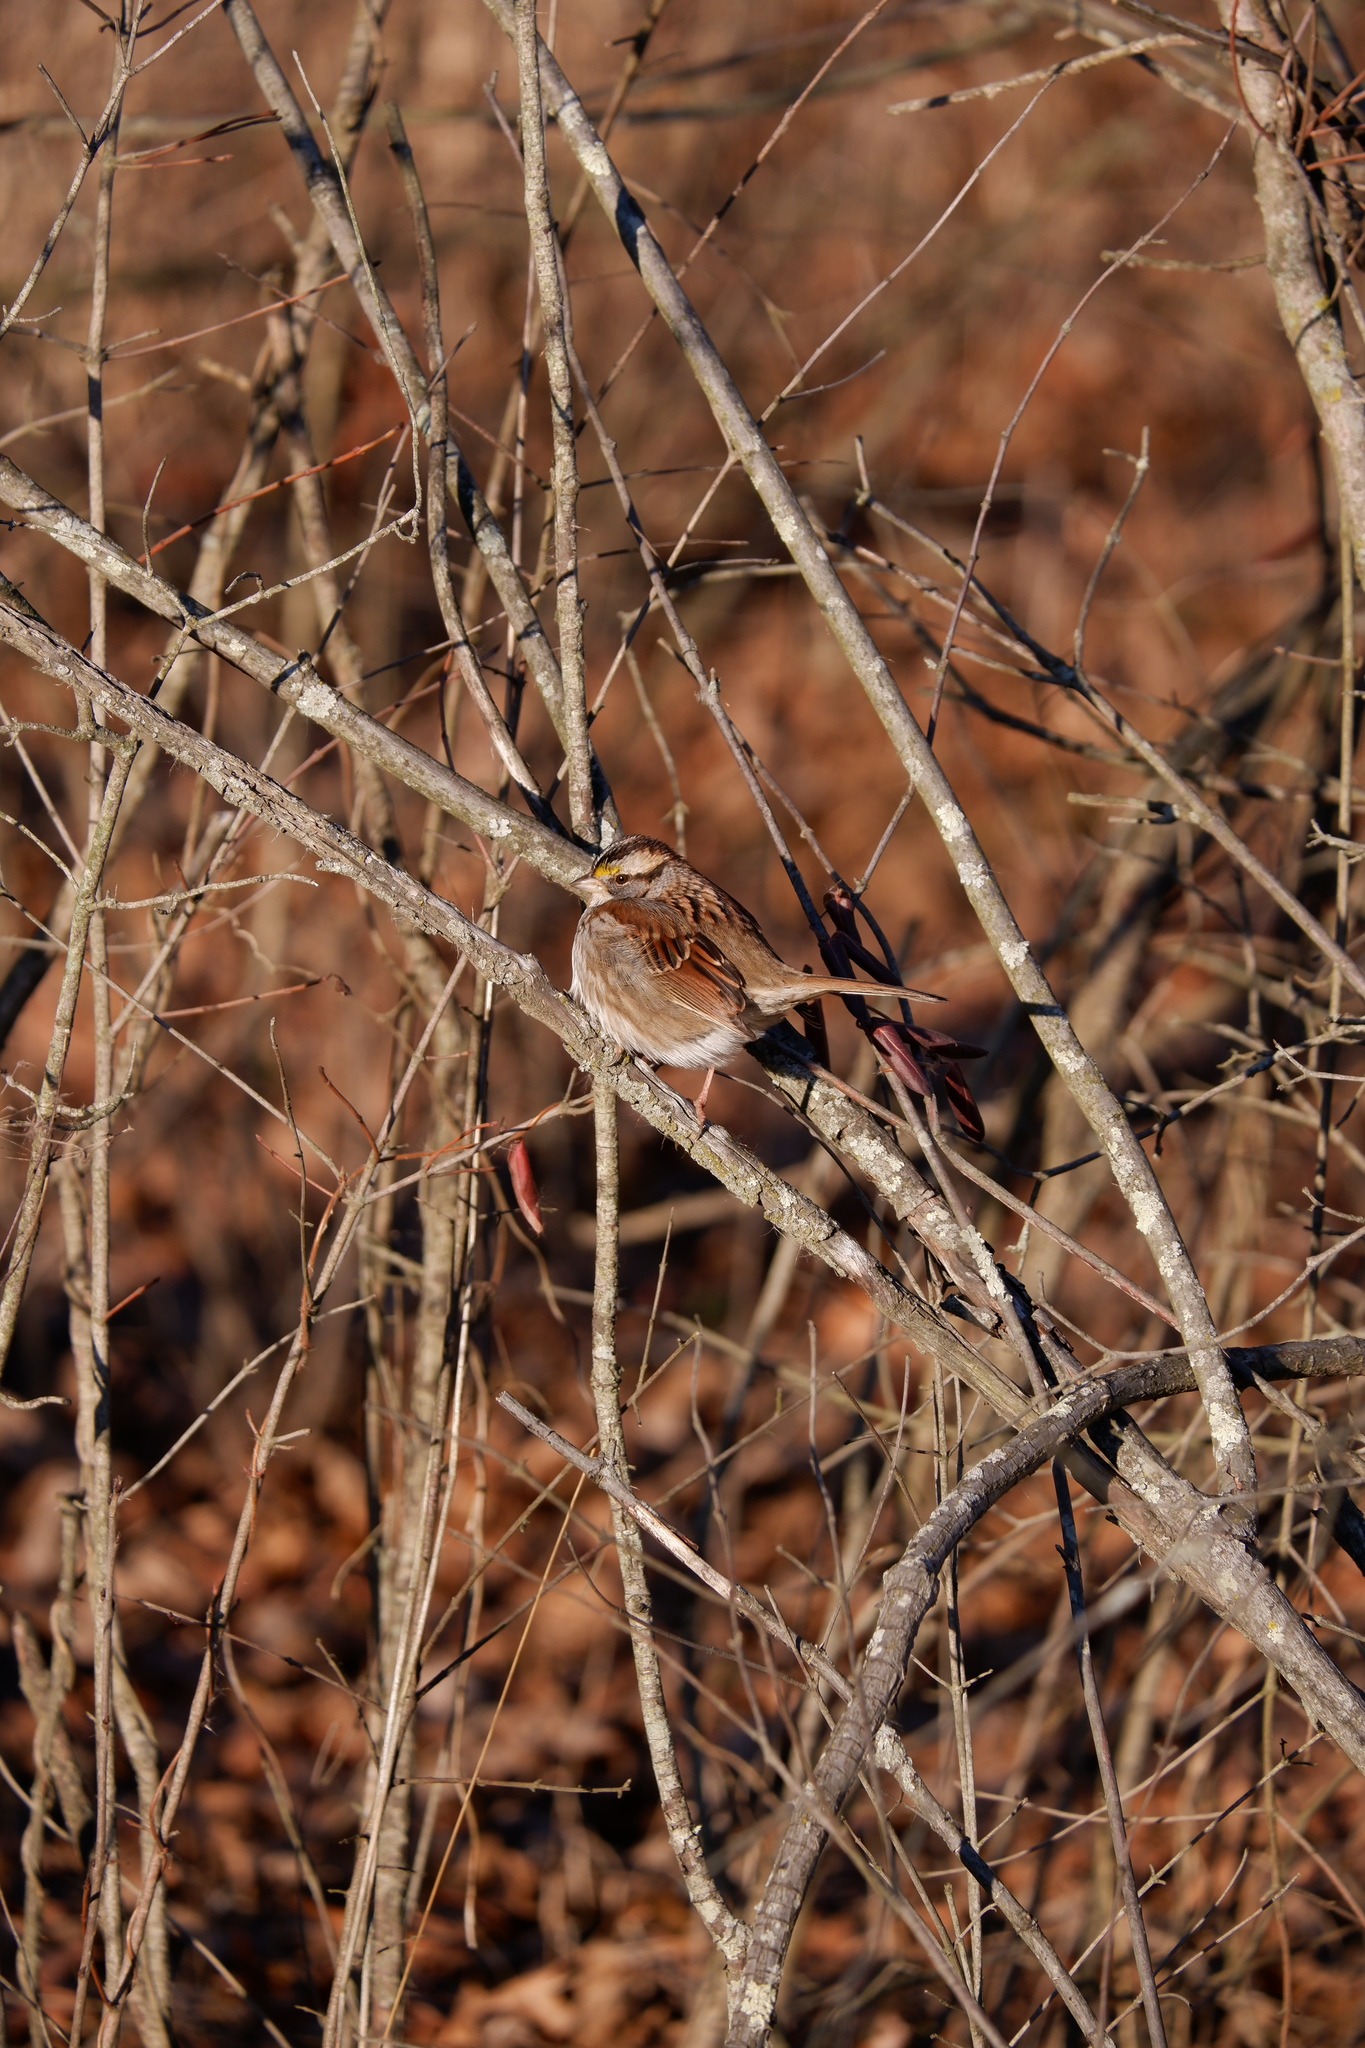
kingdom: Animalia
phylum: Chordata
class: Aves
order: Passeriformes
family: Passerellidae
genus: Zonotrichia
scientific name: Zonotrichia albicollis
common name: White-throated sparrow
